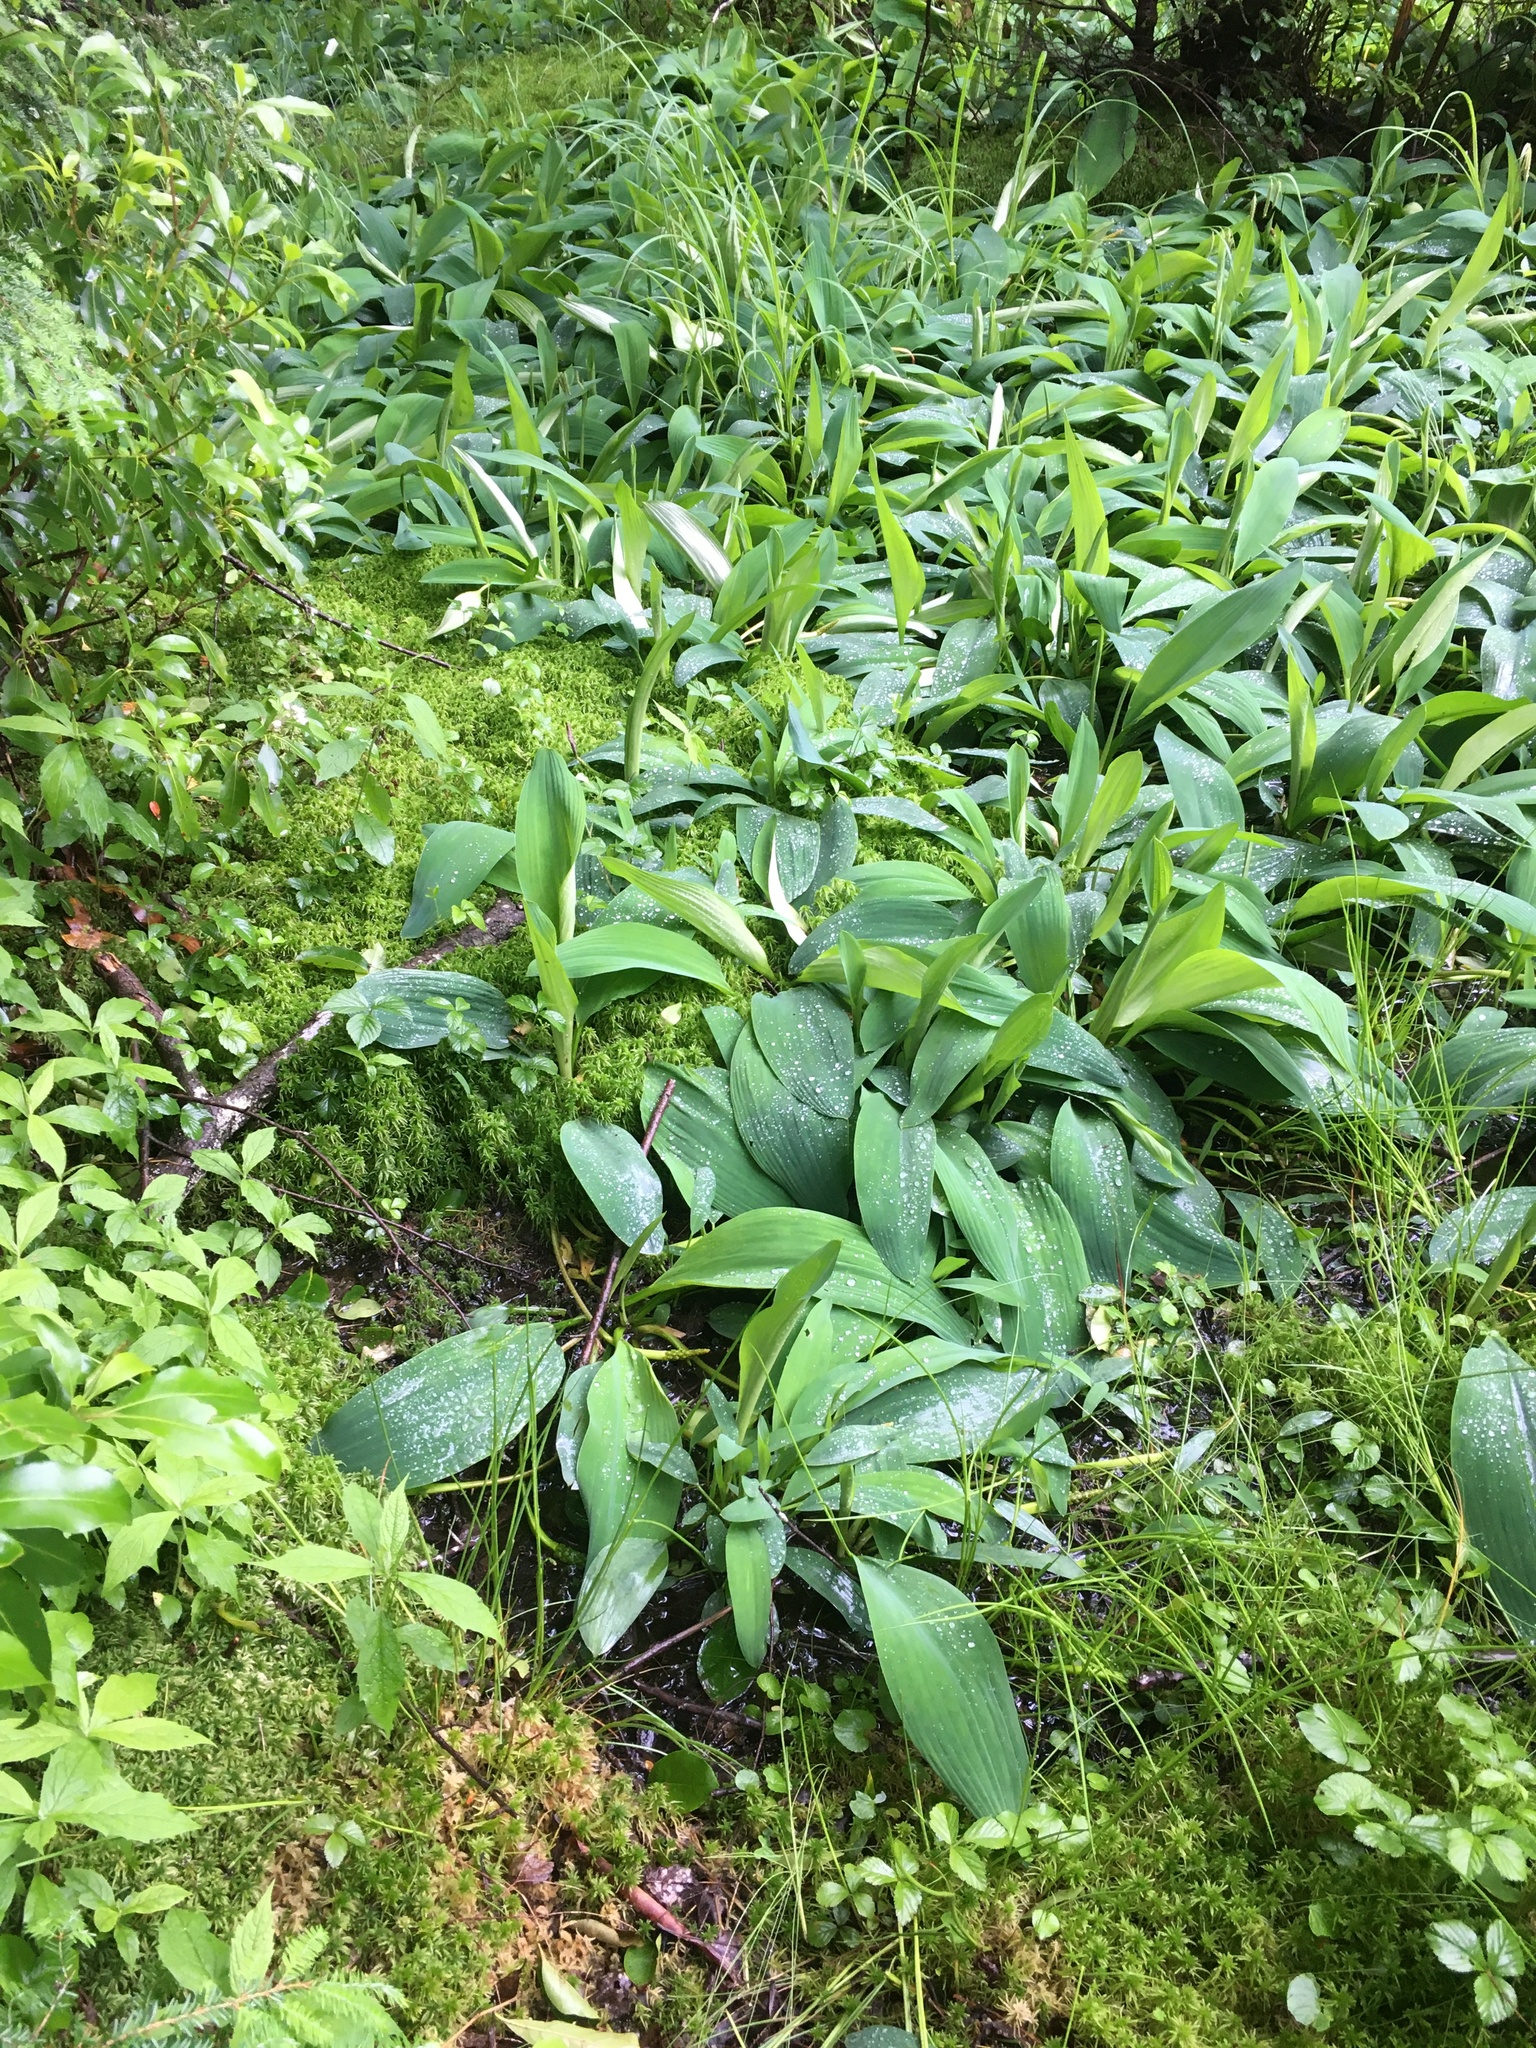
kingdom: Plantae
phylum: Tracheophyta
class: Liliopsida
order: Alismatales
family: Araceae
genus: Orontium
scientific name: Orontium aquaticum
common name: Golden-club
